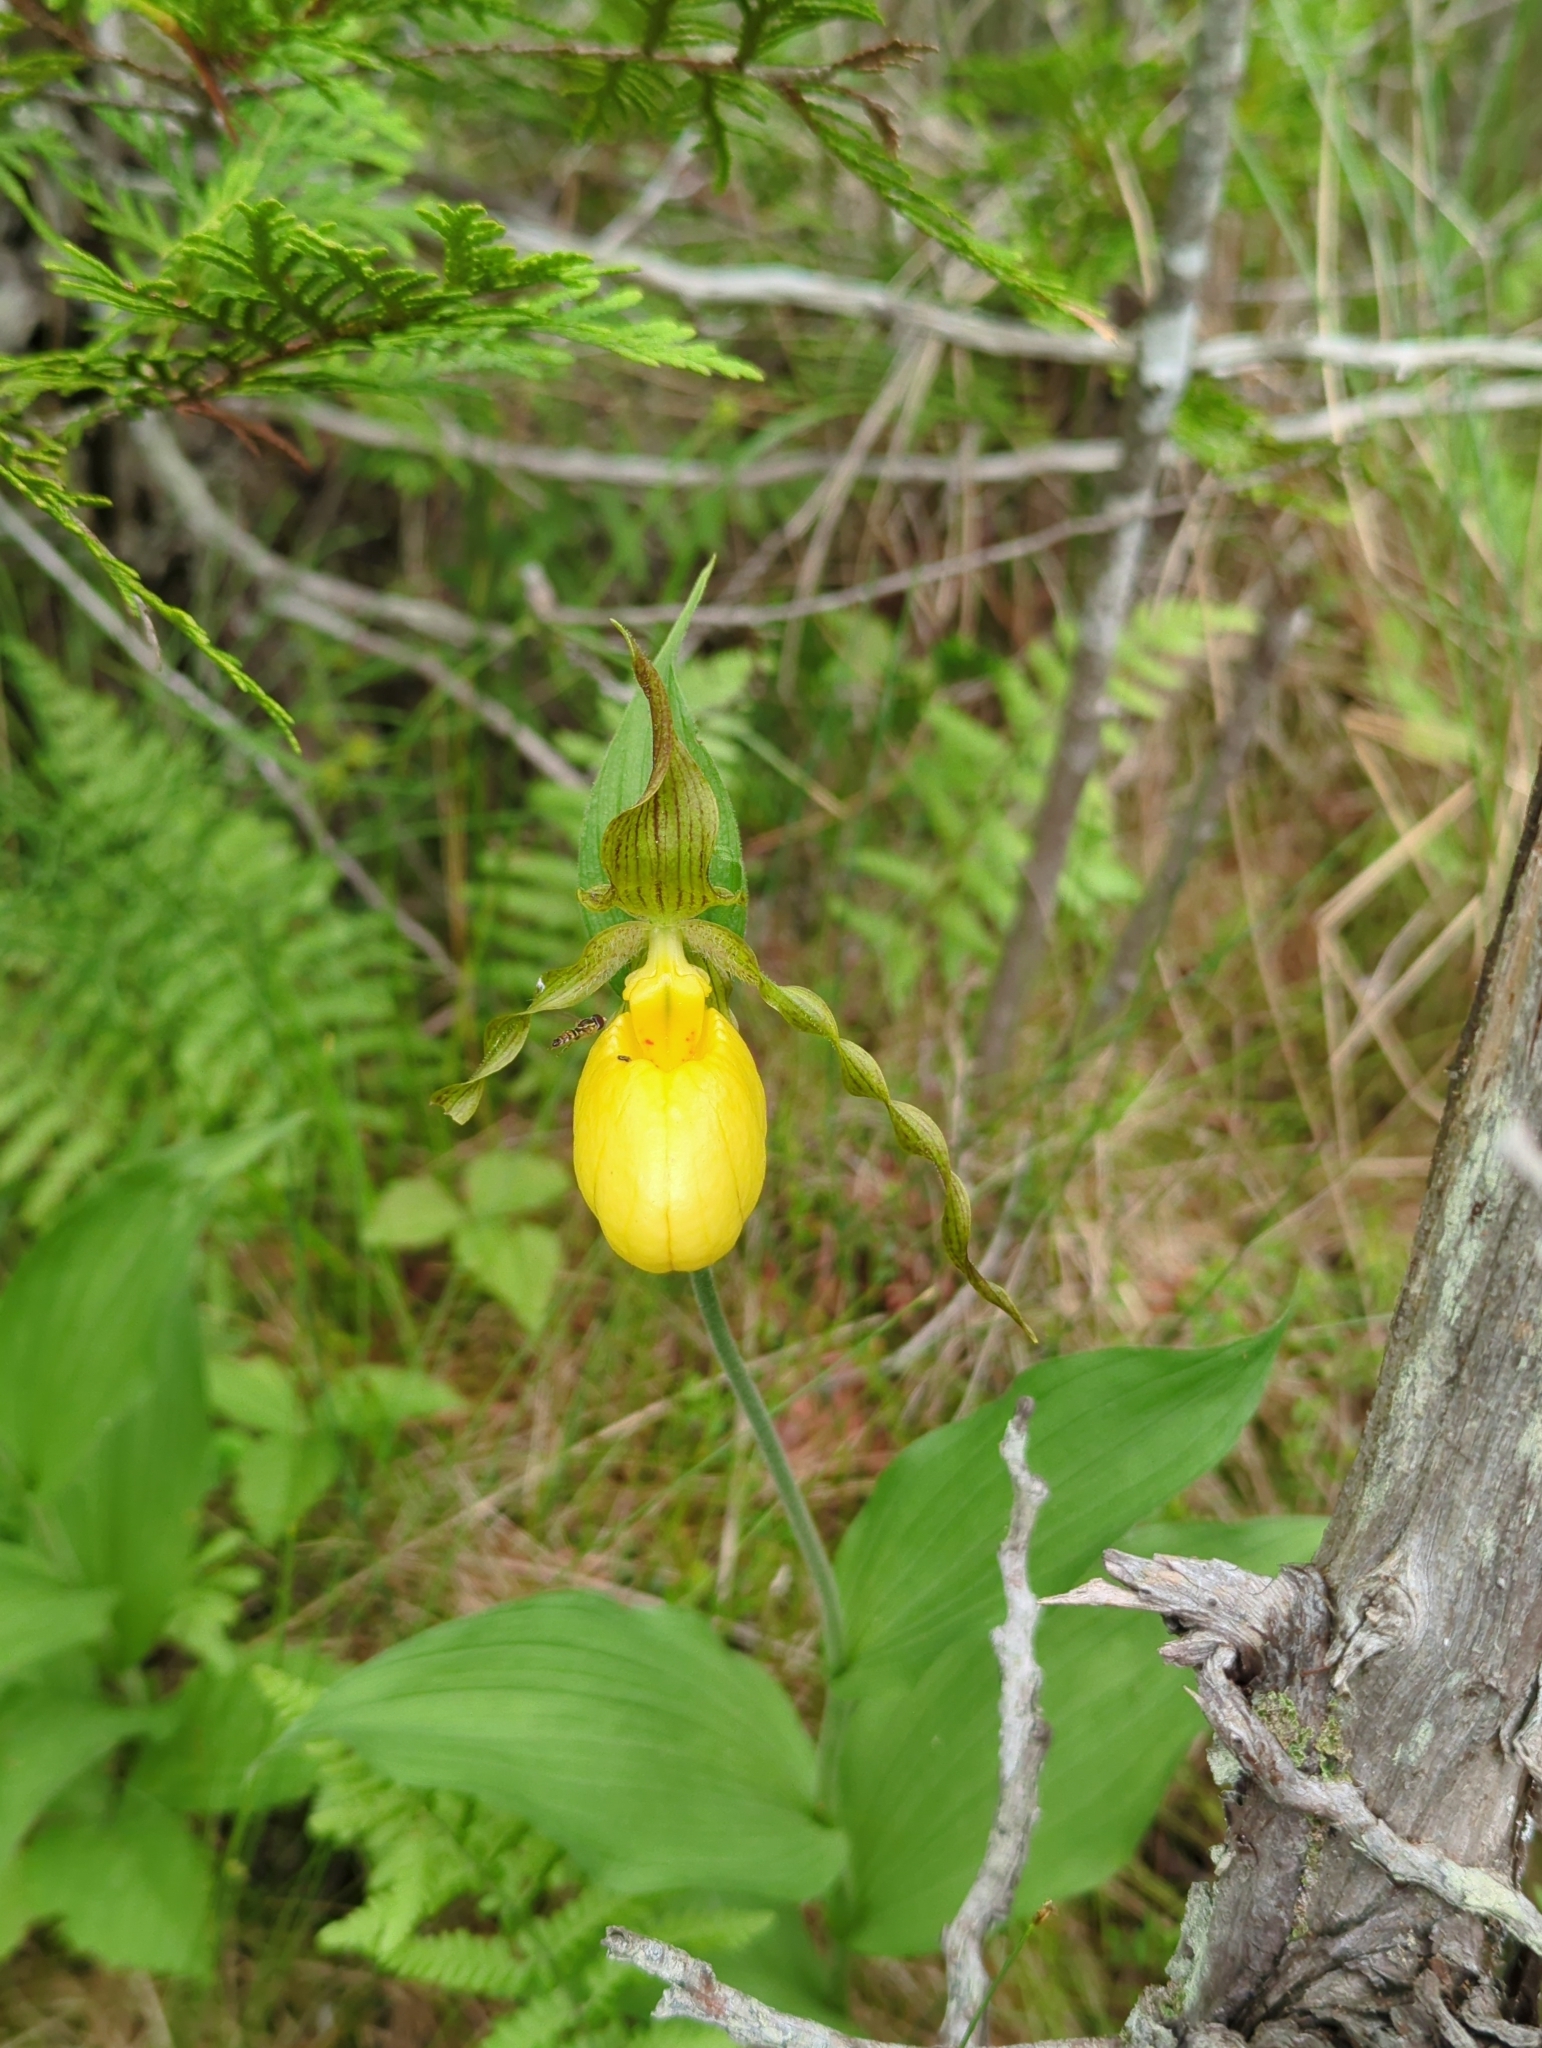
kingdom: Plantae
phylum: Tracheophyta
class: Liliopsida
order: Asparagales
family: Orchidaceae
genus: Cypripedium
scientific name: Cypripedium parviflorum
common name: American yellow lady's-slipper
